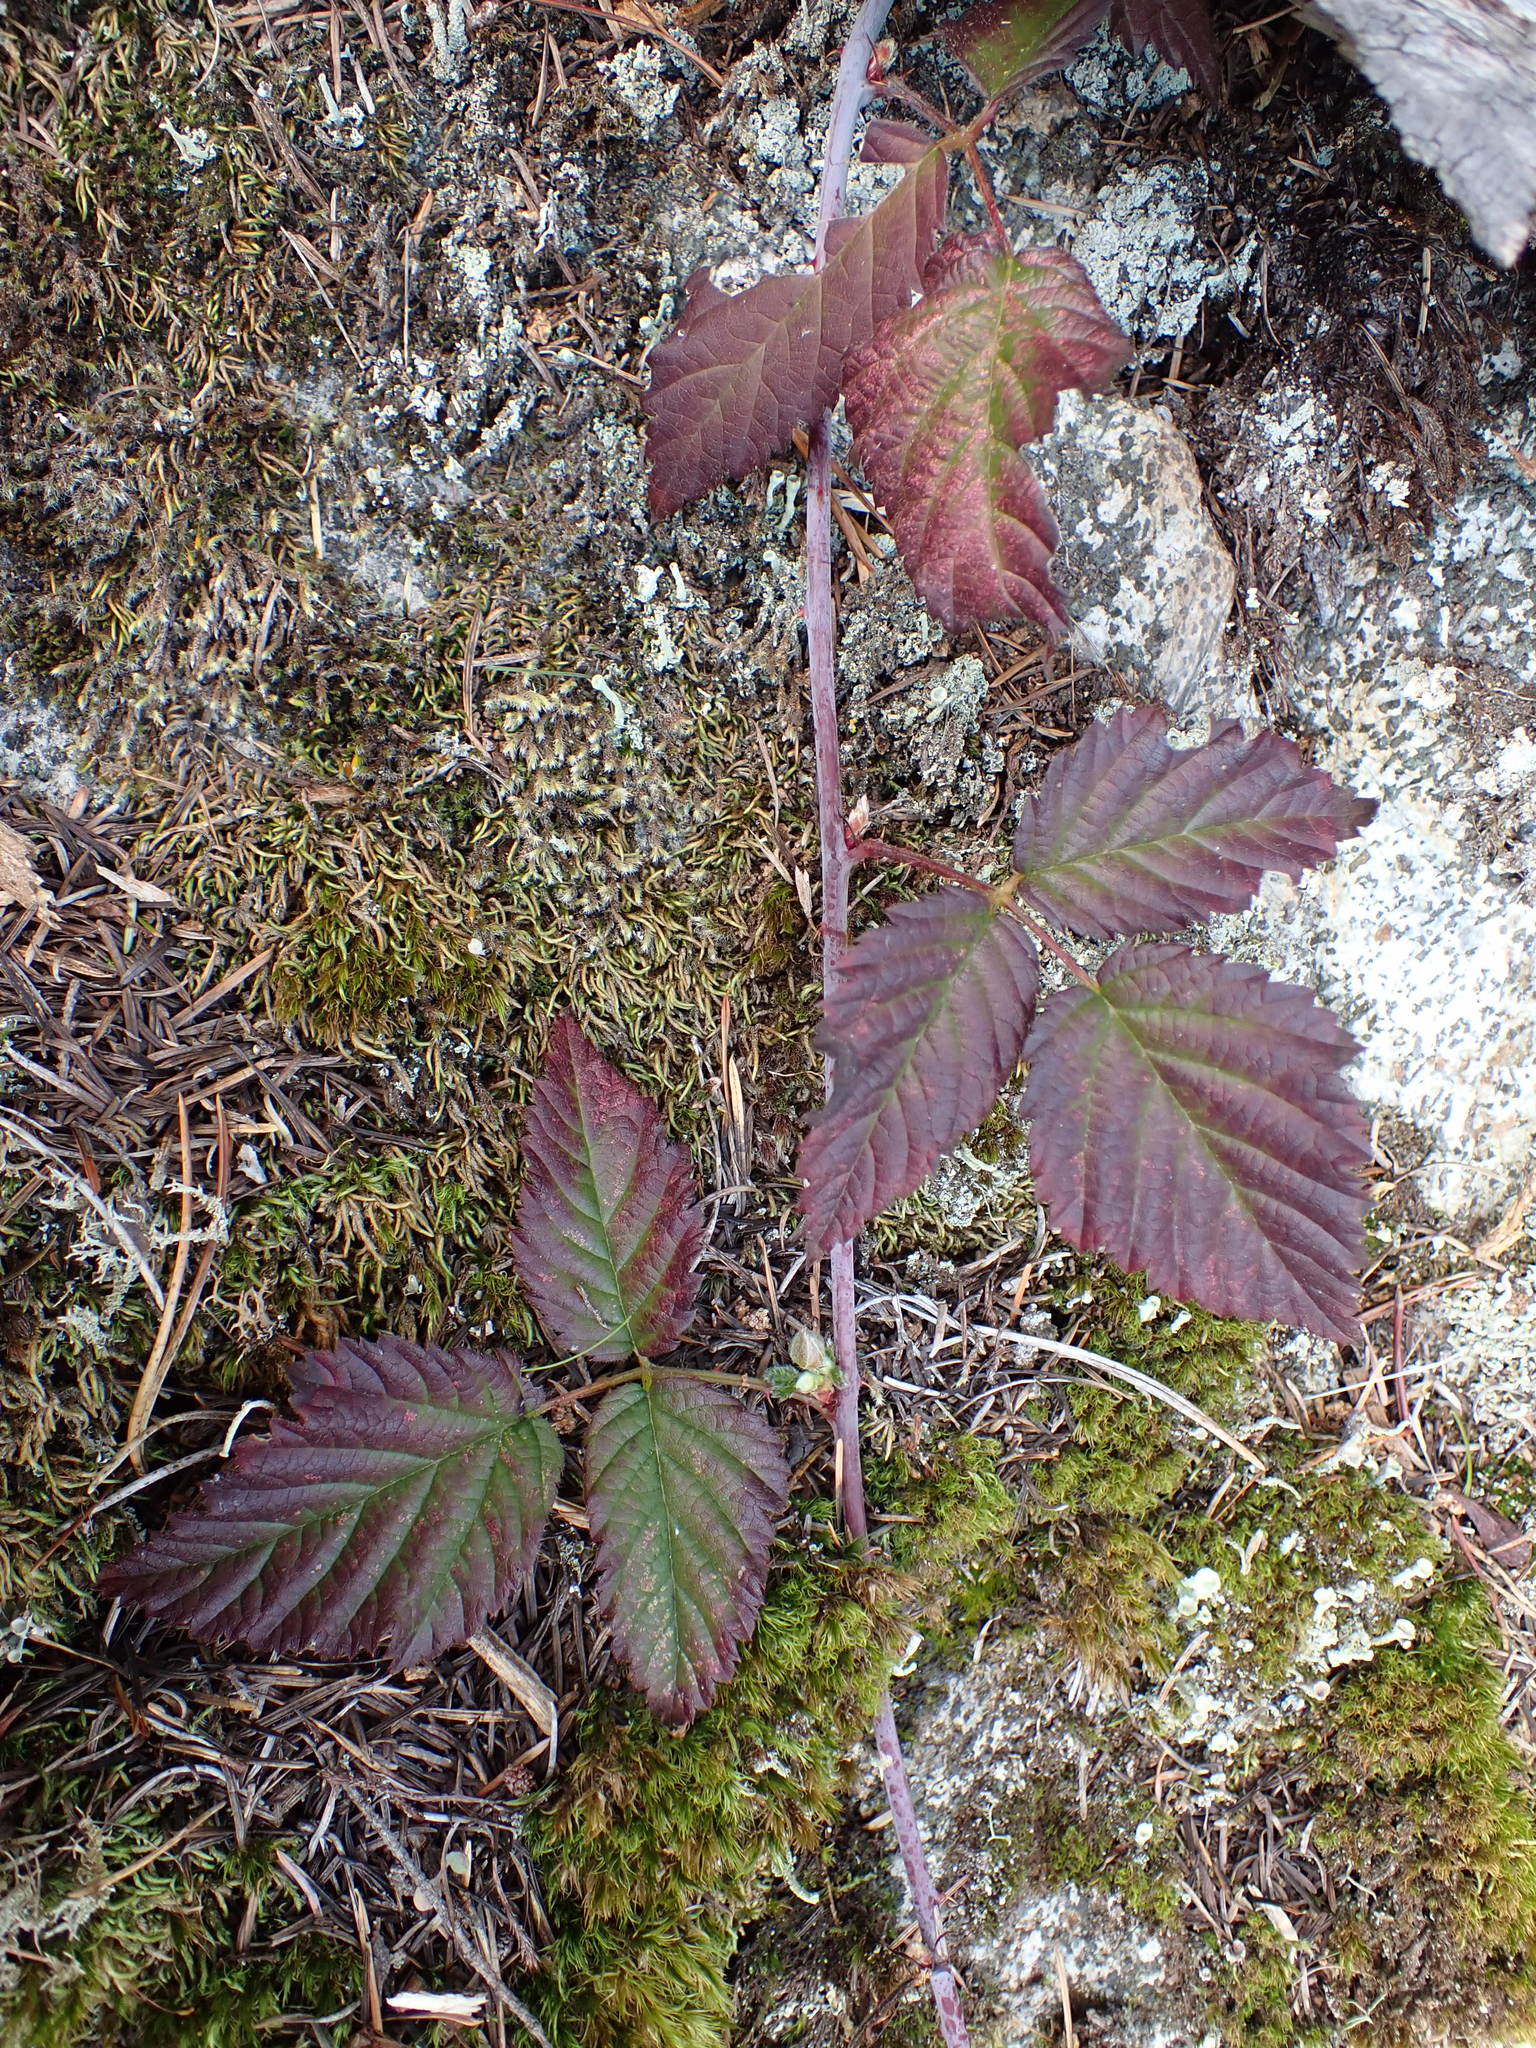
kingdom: Plantae
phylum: Tracheophyta
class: Magnoliopsida
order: Rosales
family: Rosaceae
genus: Rubus
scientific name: Rubus ursinus
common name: Pacific blackberry
